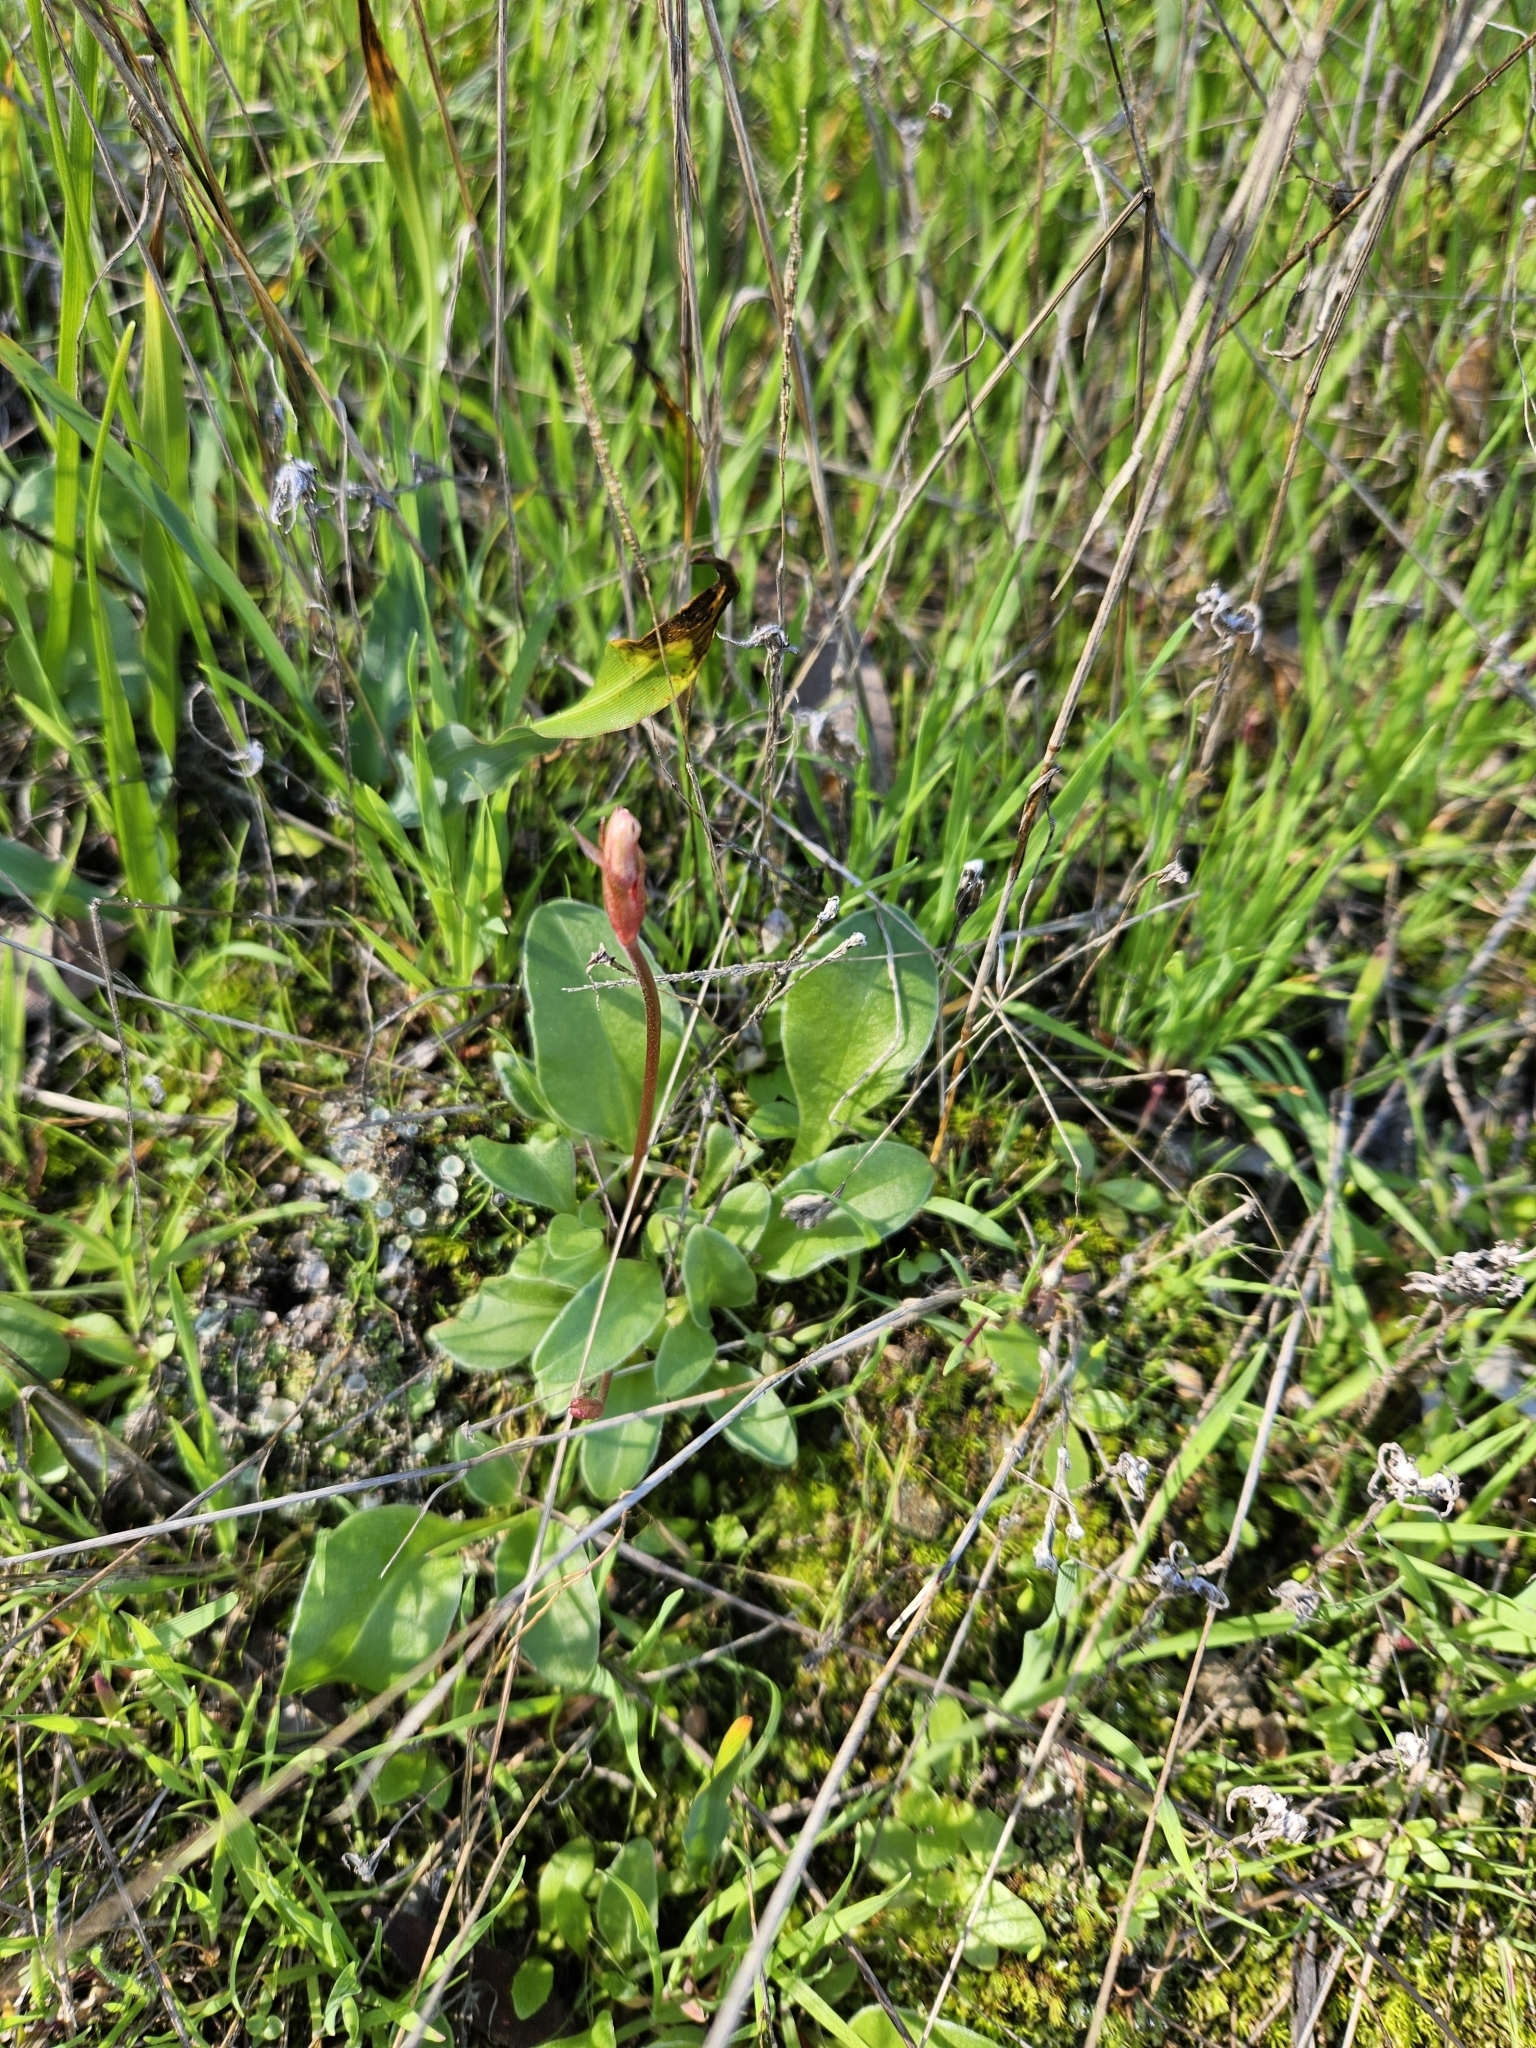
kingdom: Plantae
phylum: Tracheophyta
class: Magnoliopsida
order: Ericales
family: Primulaceae
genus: Dodecatheon
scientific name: Dodecatheon hendersonii
